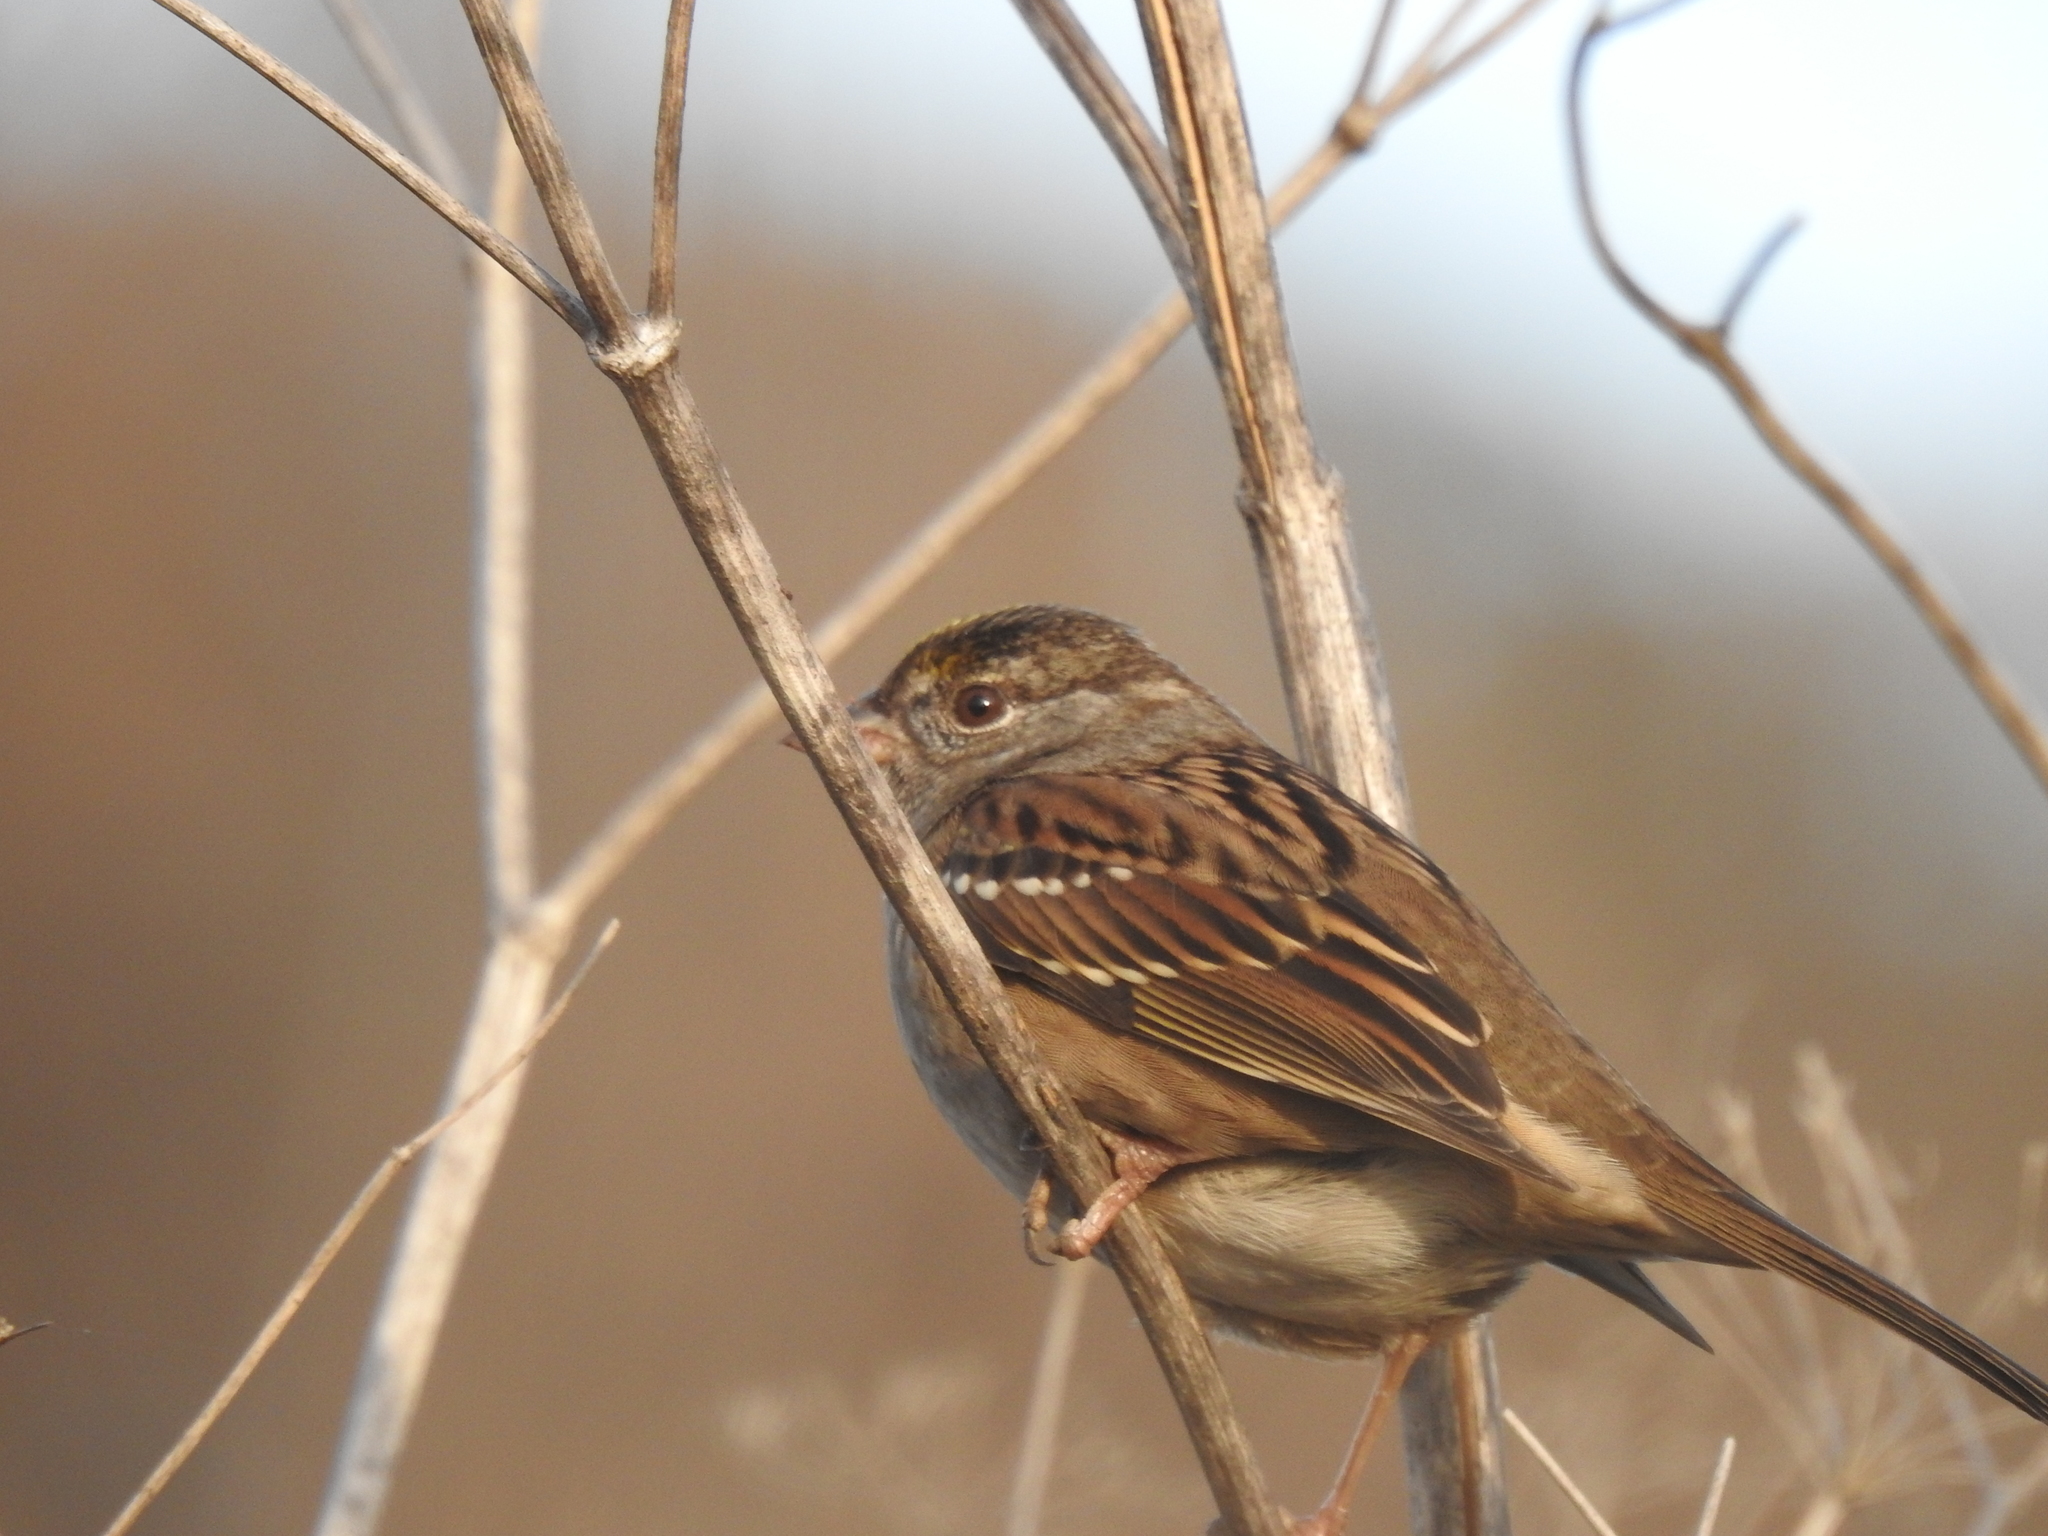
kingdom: Animalia
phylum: Chordata
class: Aves
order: Passeriformes
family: Passerellidae
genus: Zonotrichia
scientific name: Zonotrichia atricapilla
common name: Golden-crowned sparrow
